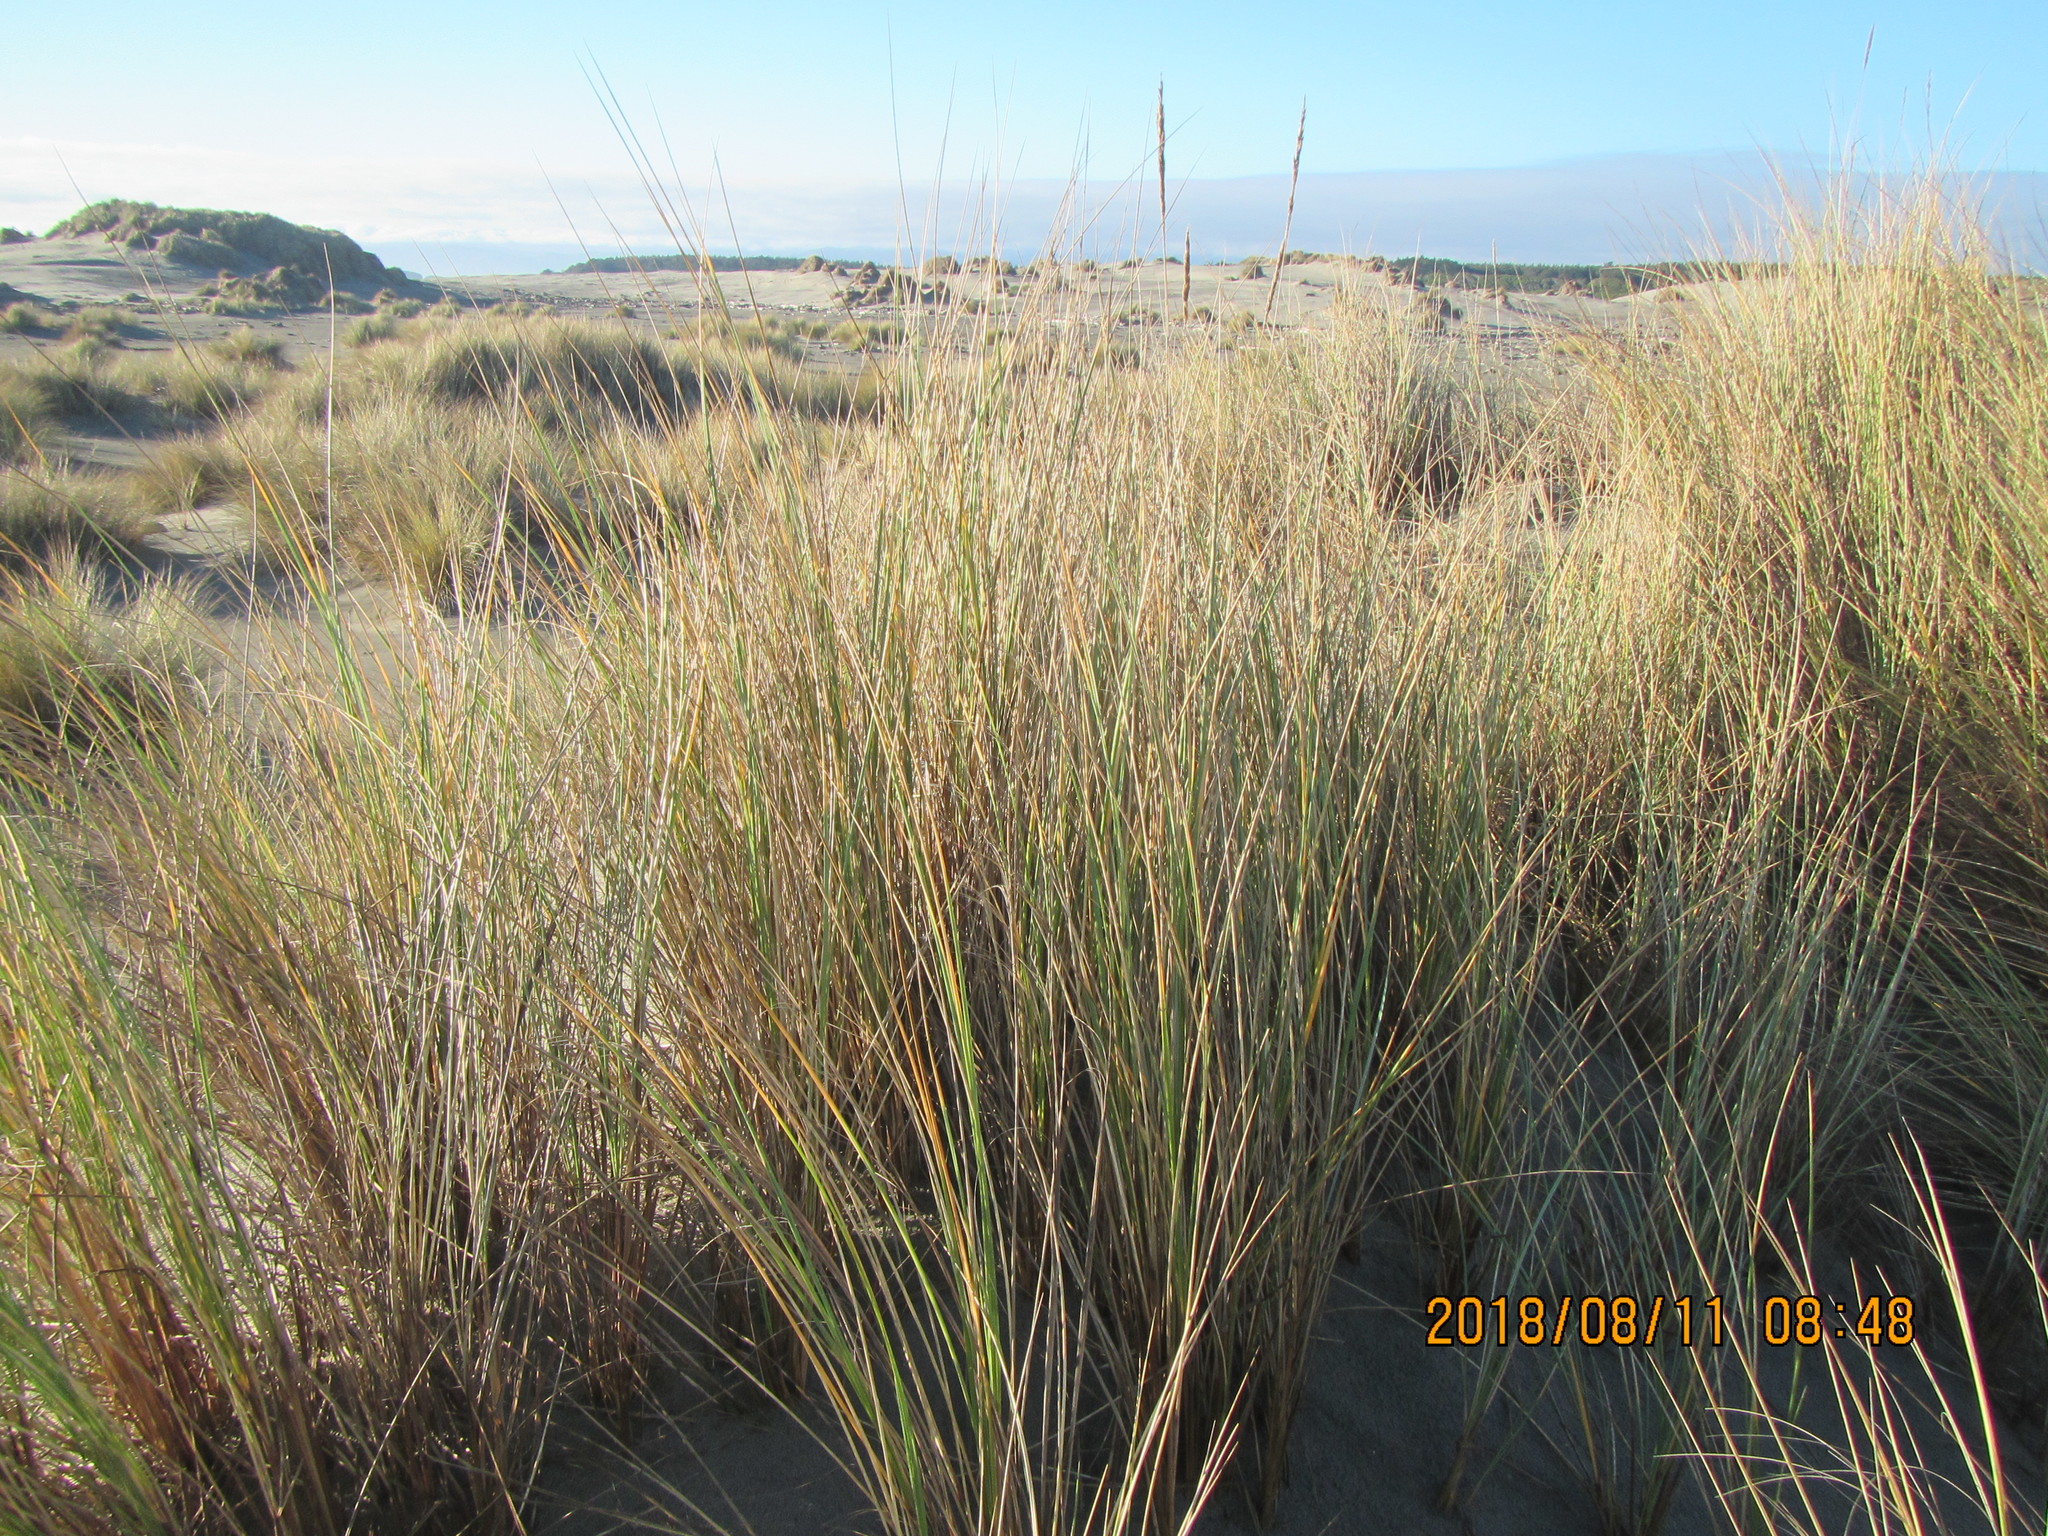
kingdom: Plantae
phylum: Tracheophyta
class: Liliopsida
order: Poales
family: Poaceae
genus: Calamagrostis
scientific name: Calamagrostis arenaria
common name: European beachgrass
